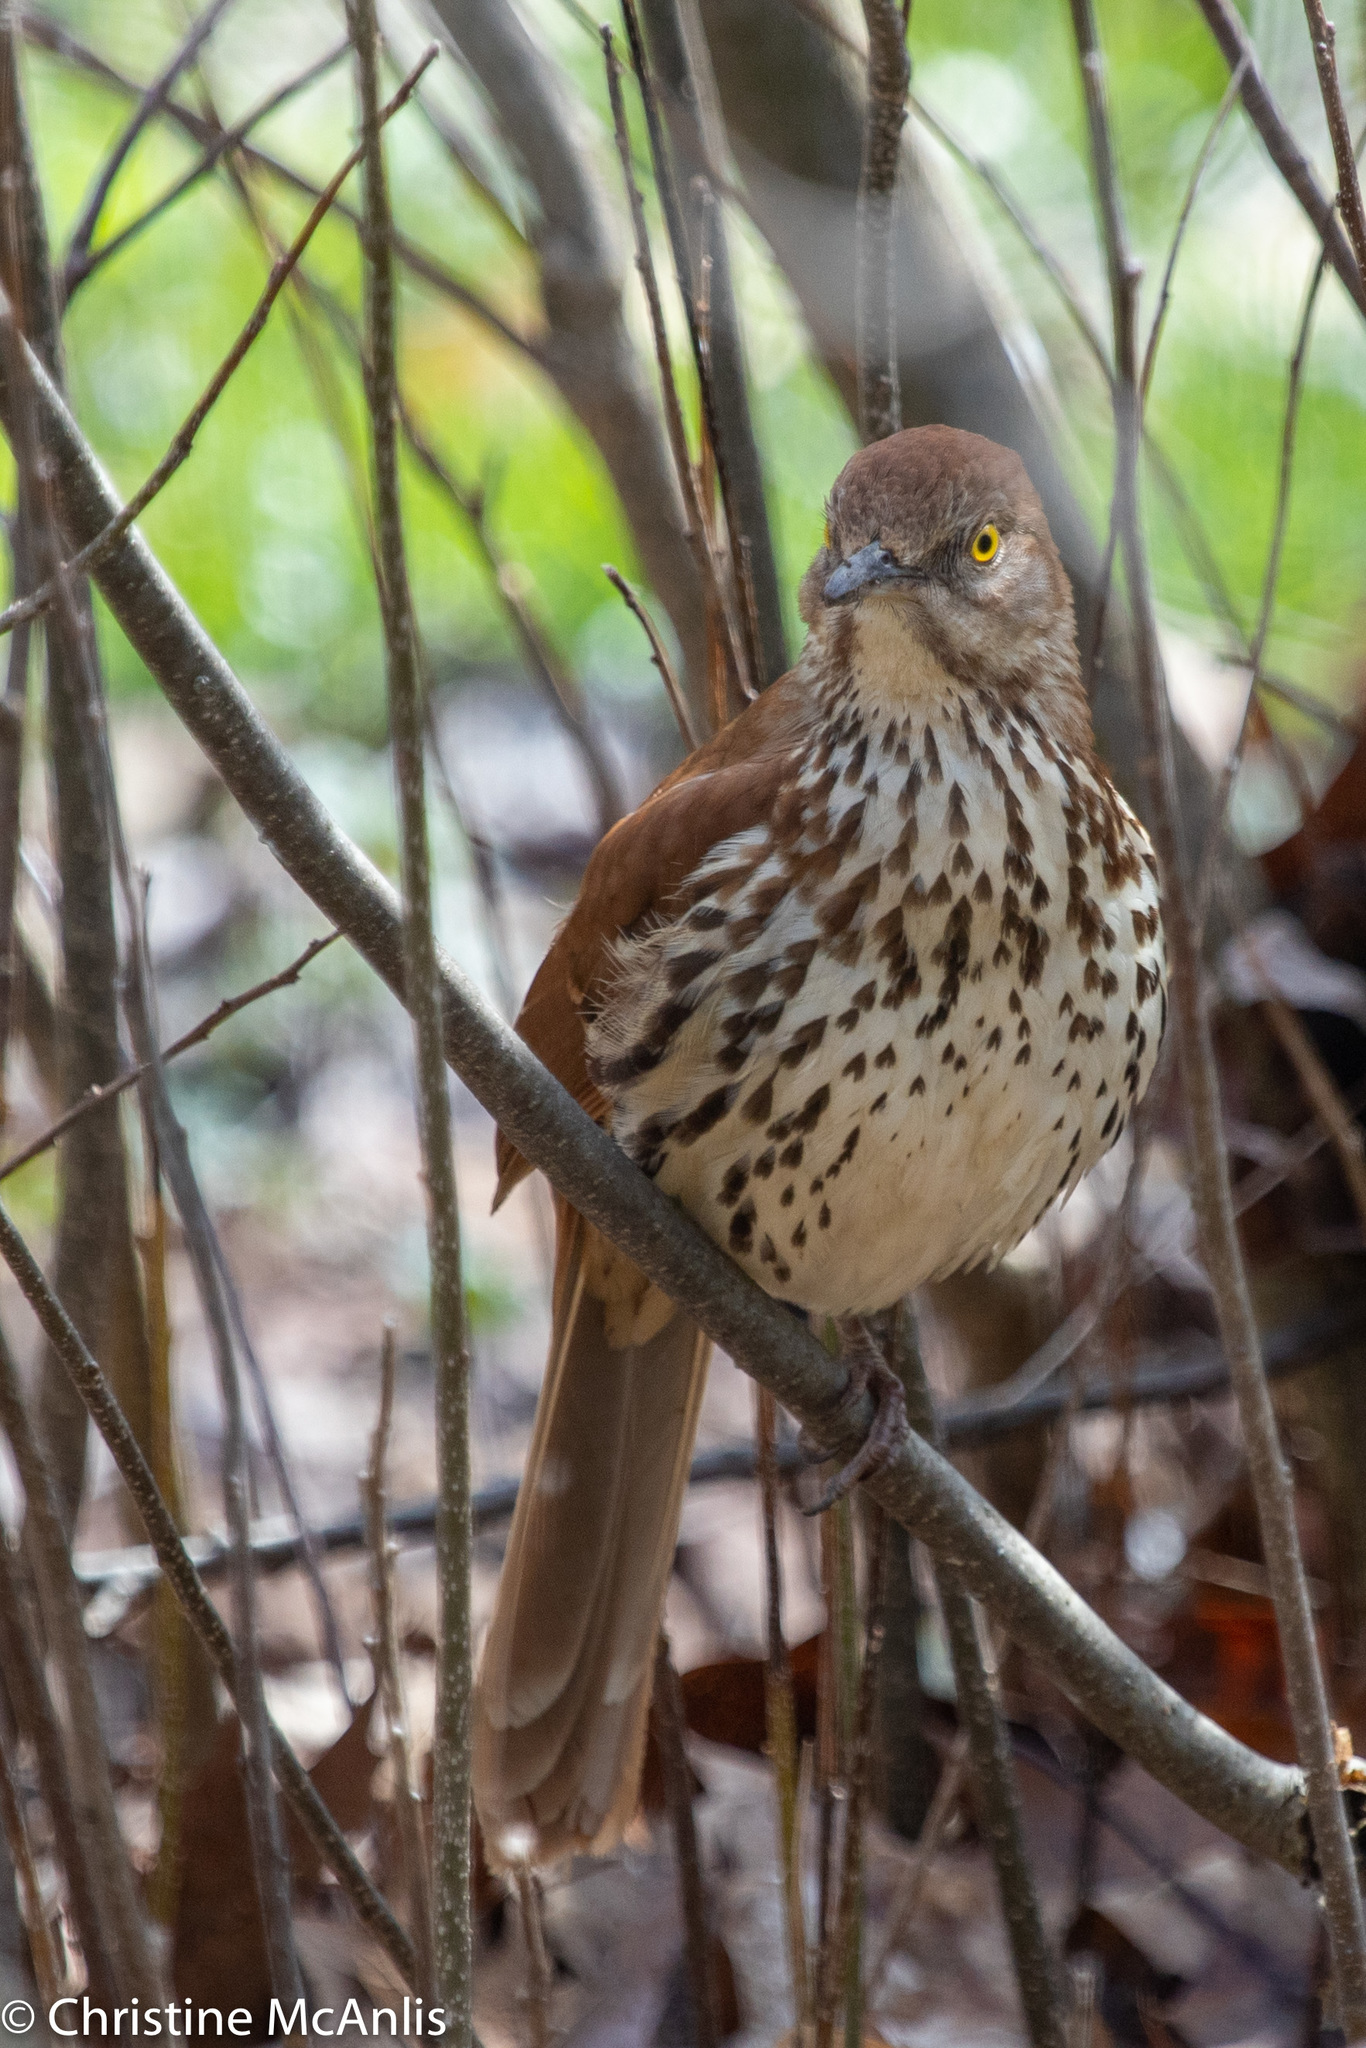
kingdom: Animalia
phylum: Chordata
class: Aves
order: Passeriformes
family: Mimidae
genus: Toxostoma
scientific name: Toxostoma rufum
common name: Brown thrasher
